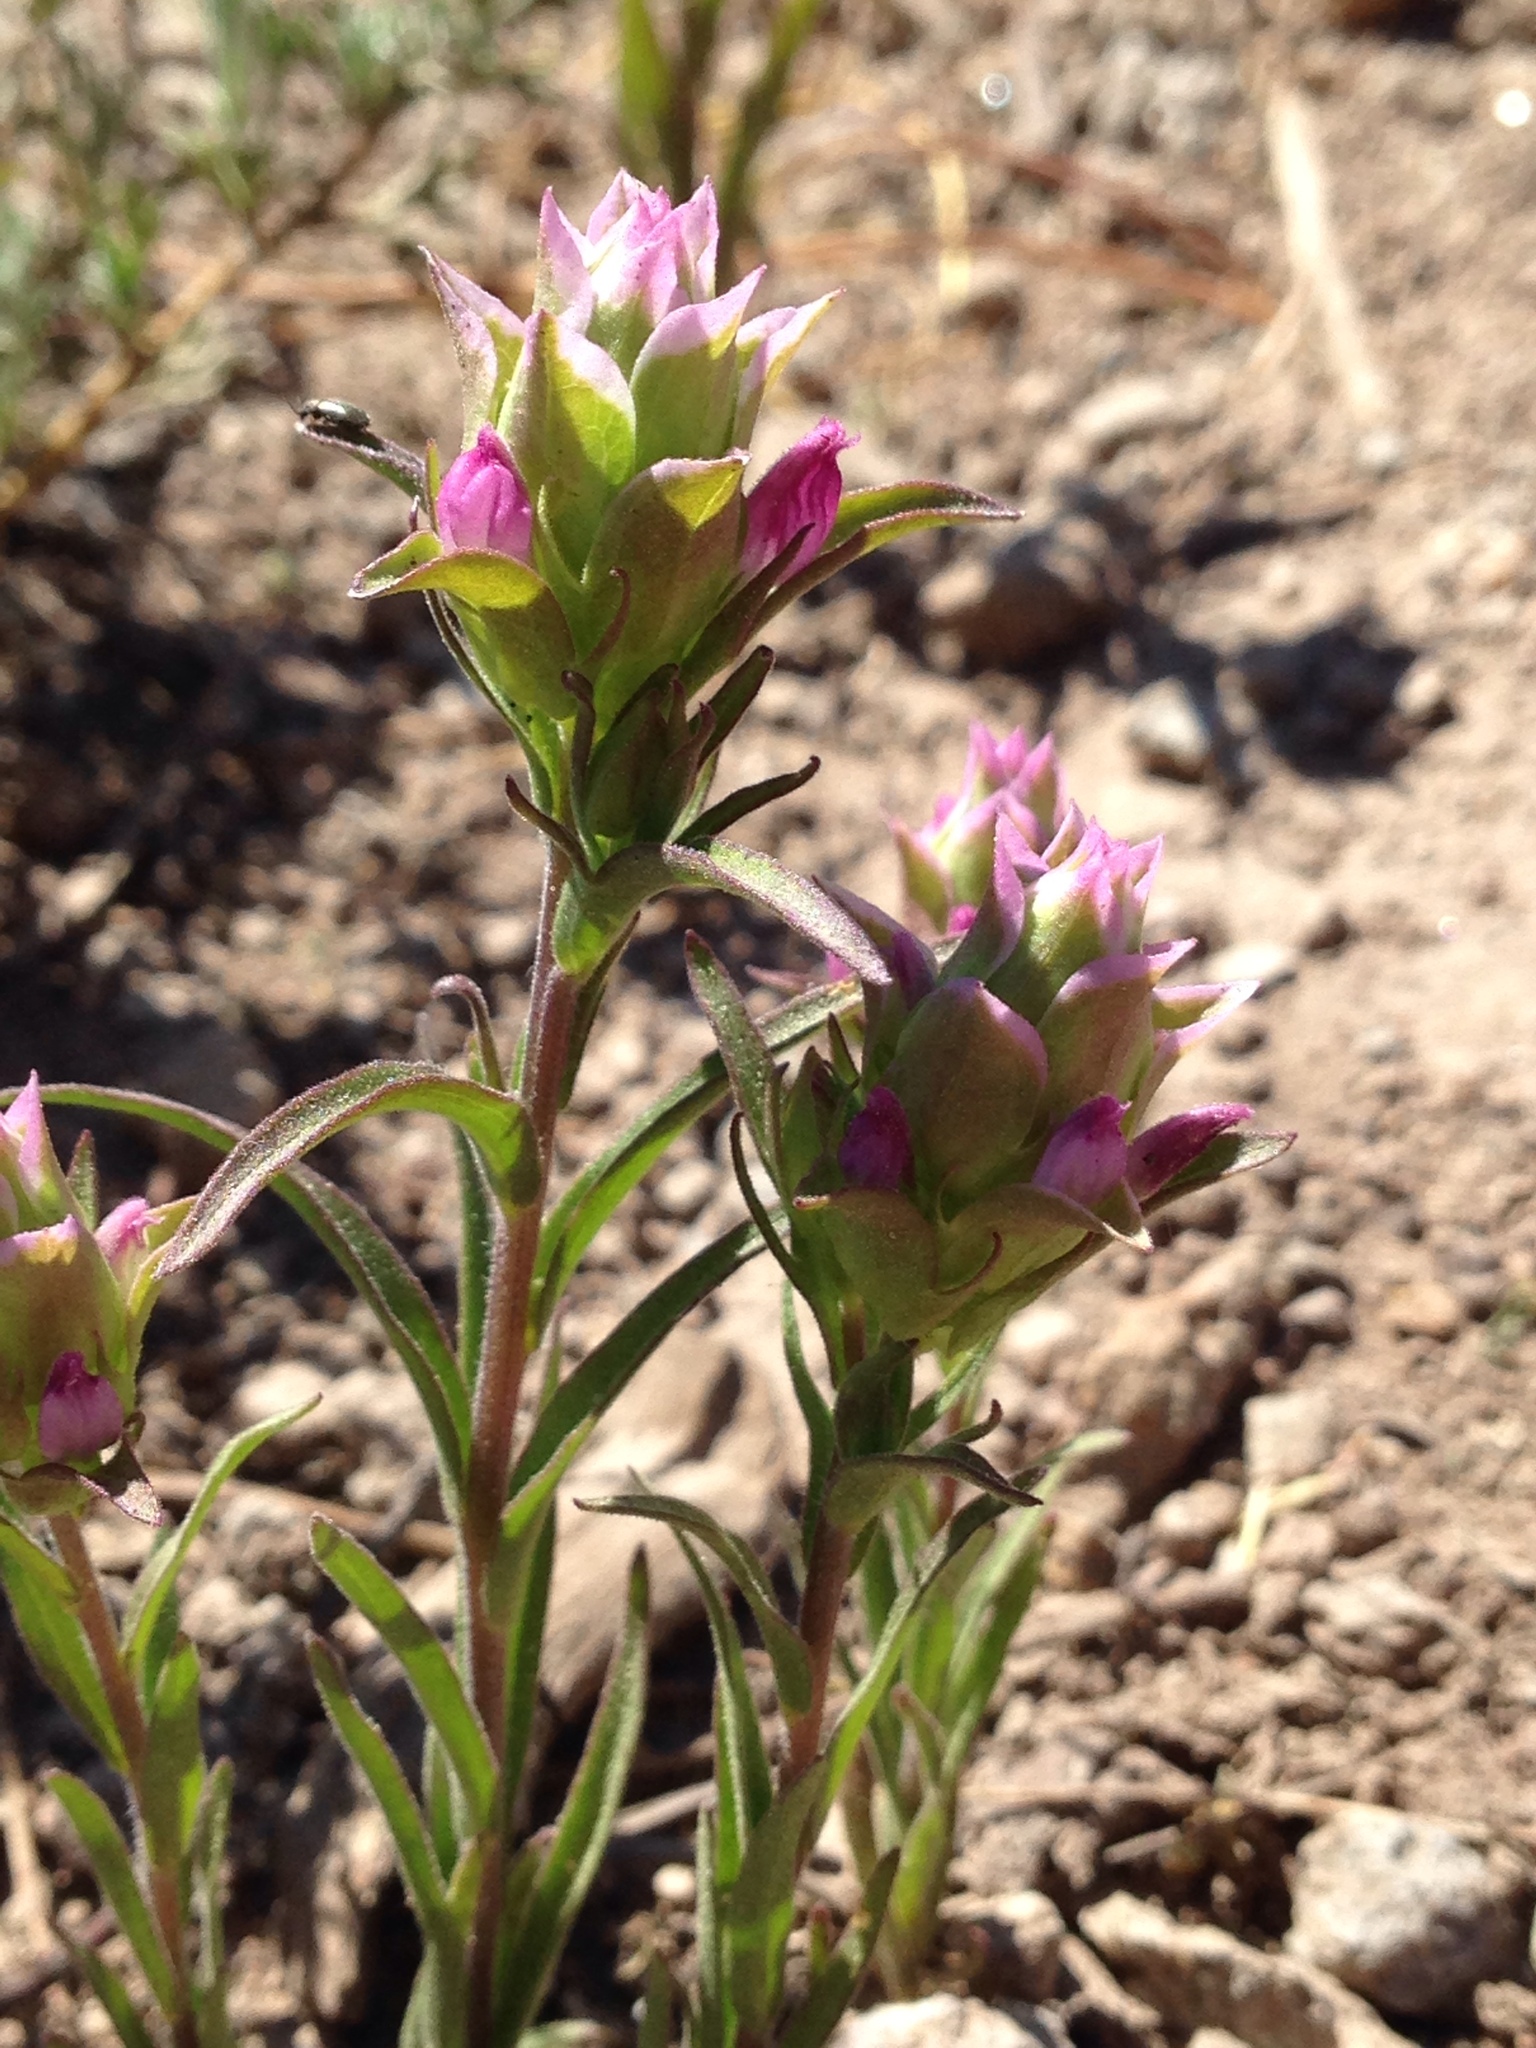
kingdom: Plantae
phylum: Tracheophyta
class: Magnoliopsida
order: Lamiales
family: Orobanchaceae
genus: Orthocarpus
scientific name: Orthocarpus cuspidatus
